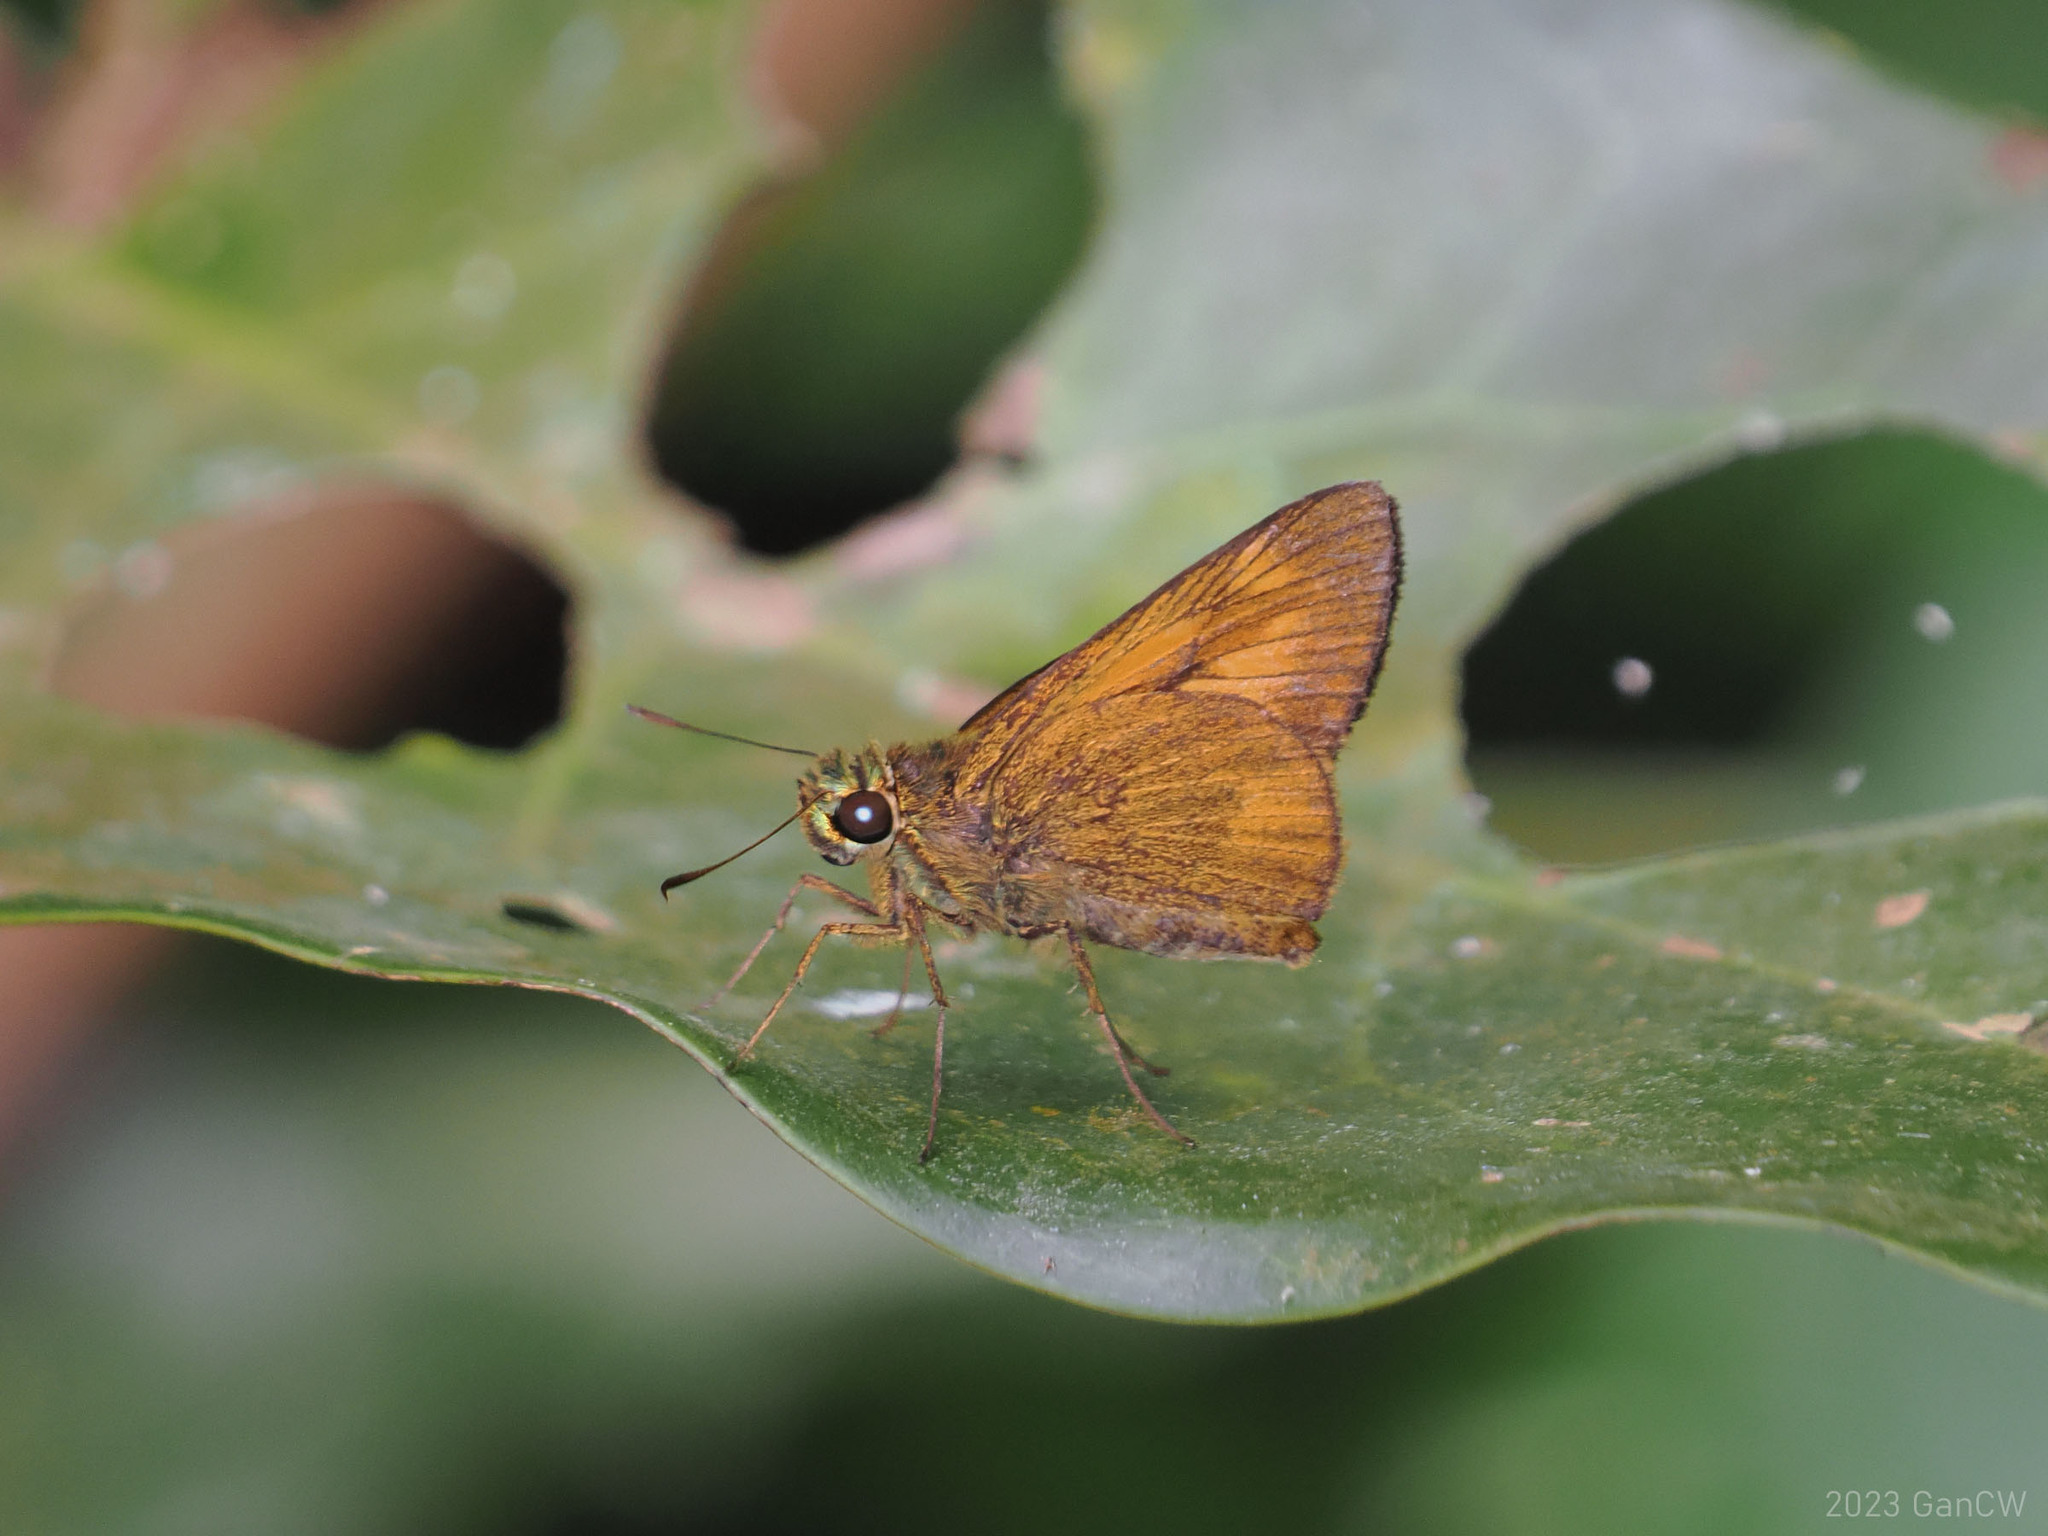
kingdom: Animalia
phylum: Arthropoda
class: Insecta
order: Lepidoptera
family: Hesperiidae
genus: Prusiana
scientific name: Prusiana prusias
